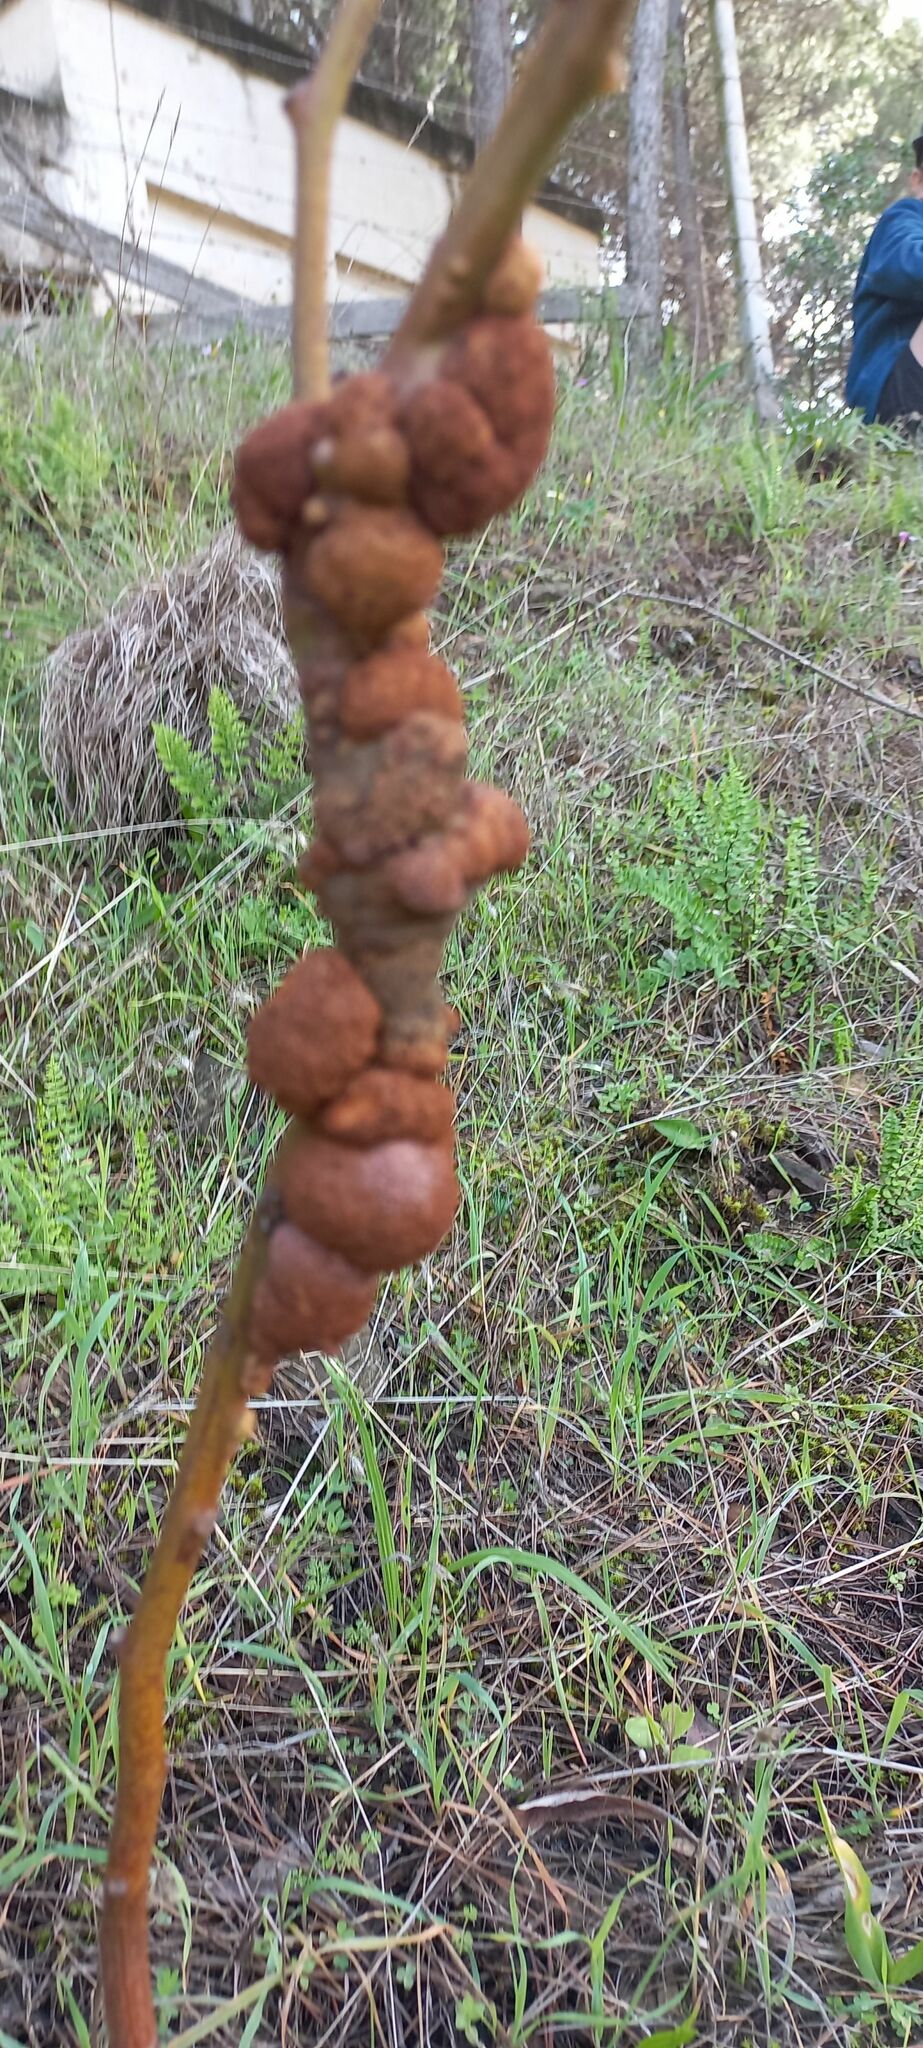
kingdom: Fungi
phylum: Basidiomycota
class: Pucciniomycetes
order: Pucciniales
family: Uromycladiaceae
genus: Uromycladium
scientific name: Uromycladium morrisii
